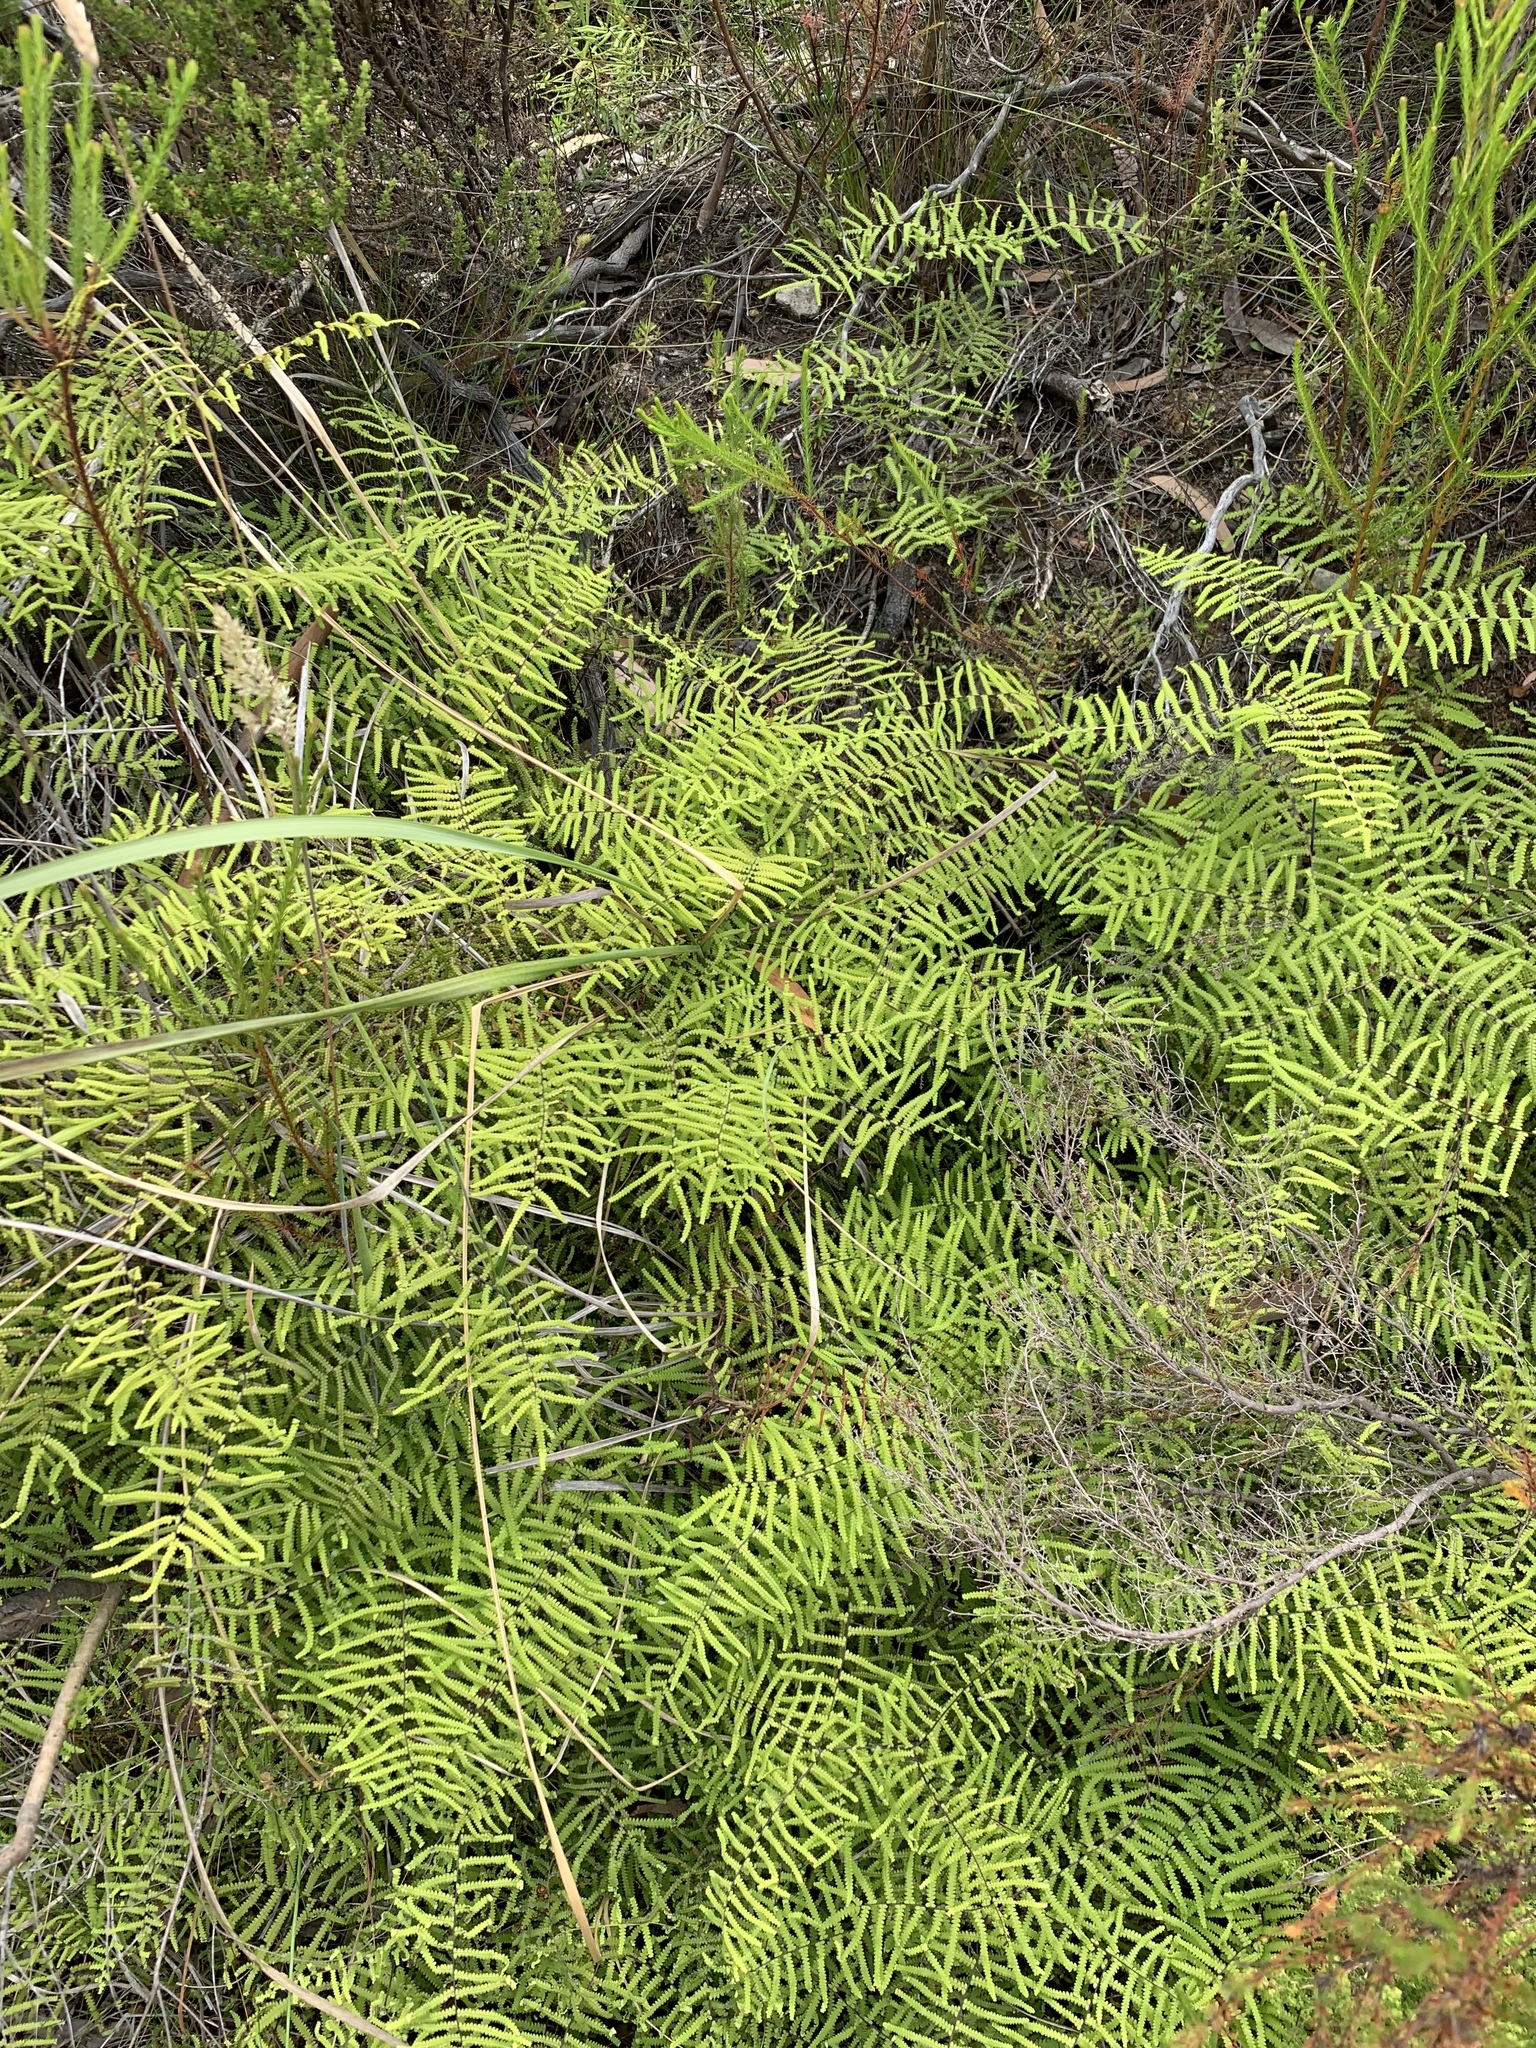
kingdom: Plantae
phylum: Tracheophyta
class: Polypodiopsida
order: Gleicheniales
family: Gleicheniaceae
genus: Gleichenia
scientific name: Gleichenia polypodioides
